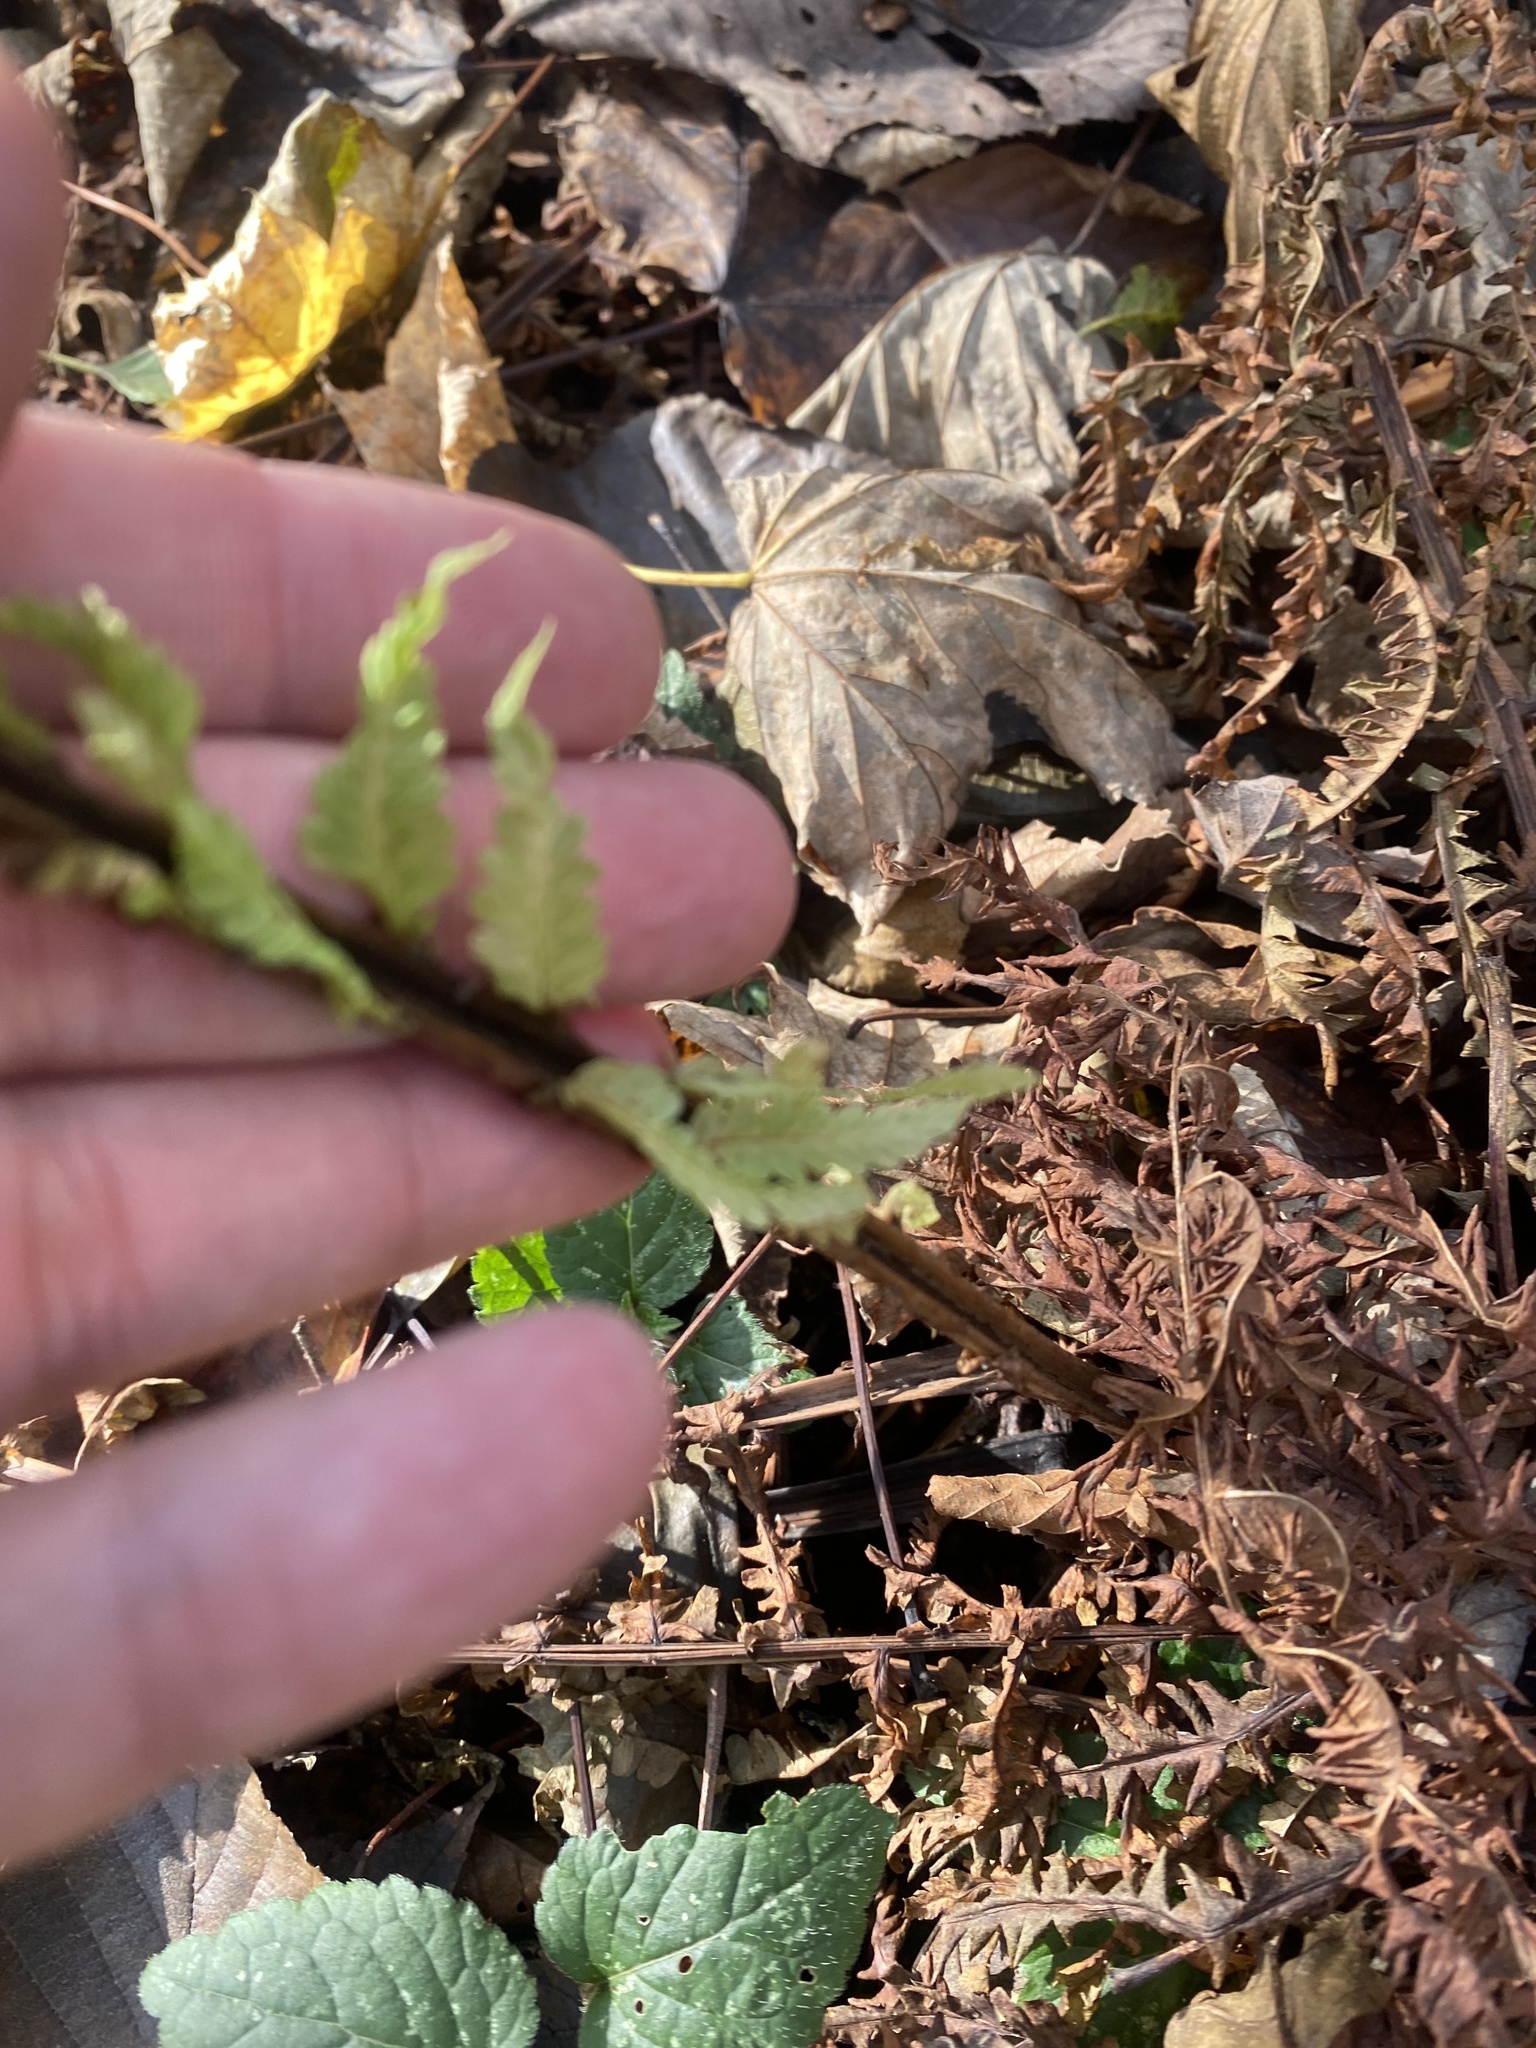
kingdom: Plantae
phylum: Tracheophyta
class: Polypodiopsida
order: Polypodiales
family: Onocleaceae
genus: Matteuccia
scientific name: Matteuccia struthiopteris
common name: Ostrich fern
